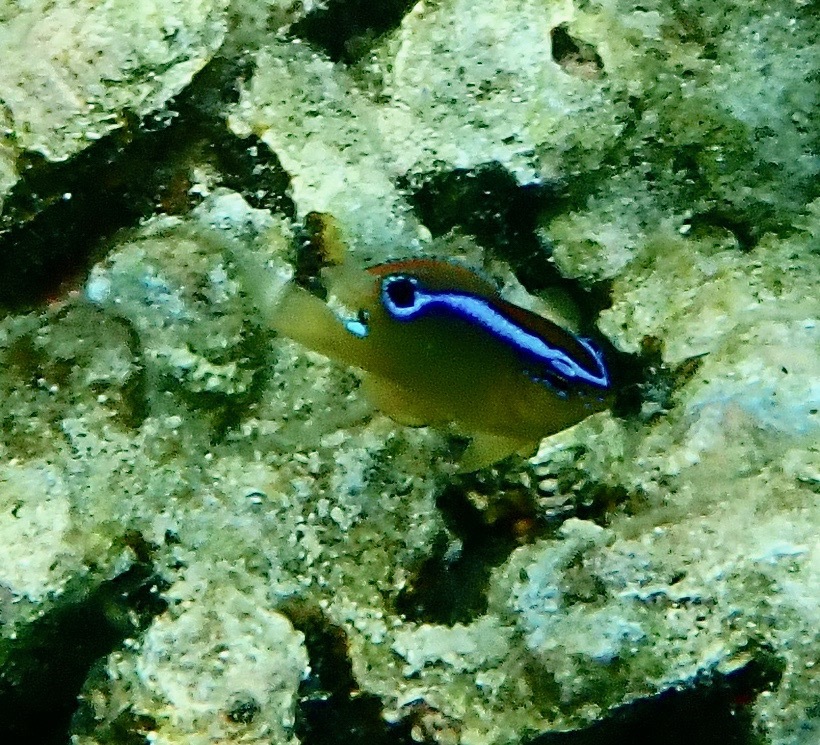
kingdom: Animalia
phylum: Chordata
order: Perciformes
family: Pomacentridae
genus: Chrysiptera
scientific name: Chrysiptera unimaculata
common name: Onespot demoiselle
